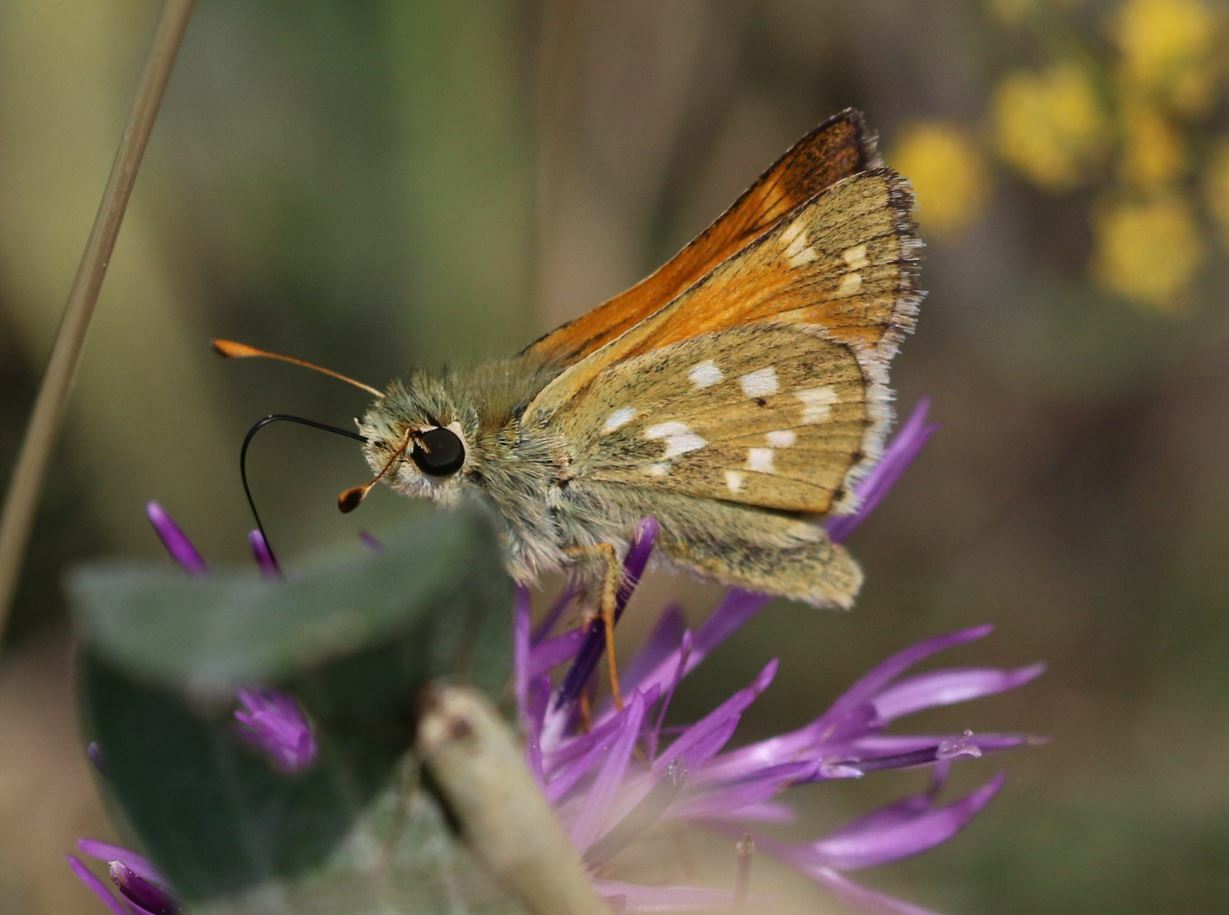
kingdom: Animalia
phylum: Arthropoda
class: Insecta
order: Lepidoptera
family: Hesperiidae
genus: Hesperia
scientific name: Hesperia comma
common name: Common branded skipper
